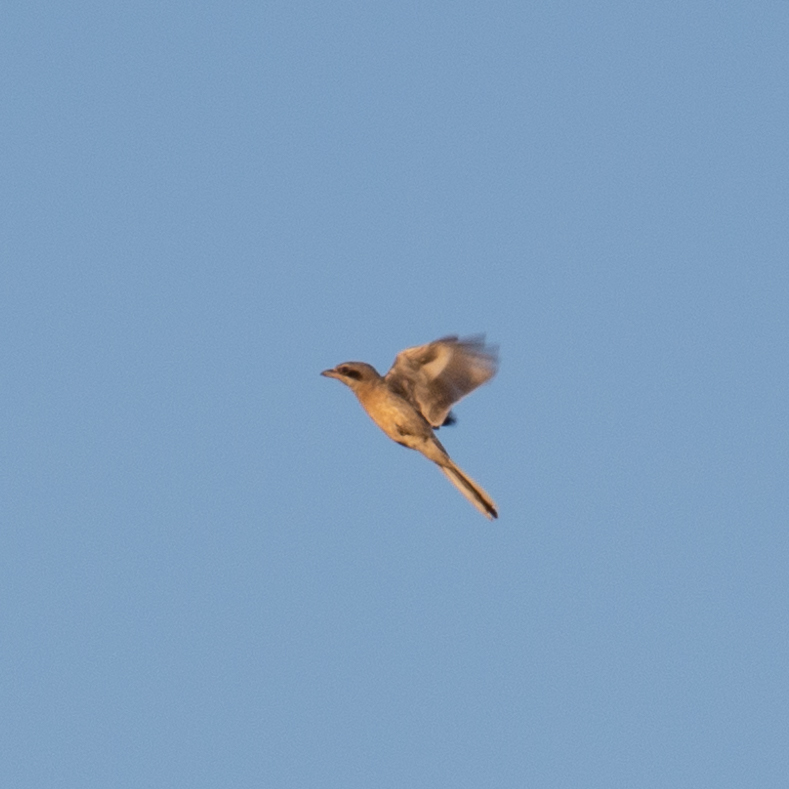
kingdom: Animalia
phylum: Chordata
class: Aves
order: Passeriformes
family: Laniidae
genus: Lanius
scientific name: Lanius meridionalis
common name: Iberian grey shrike
